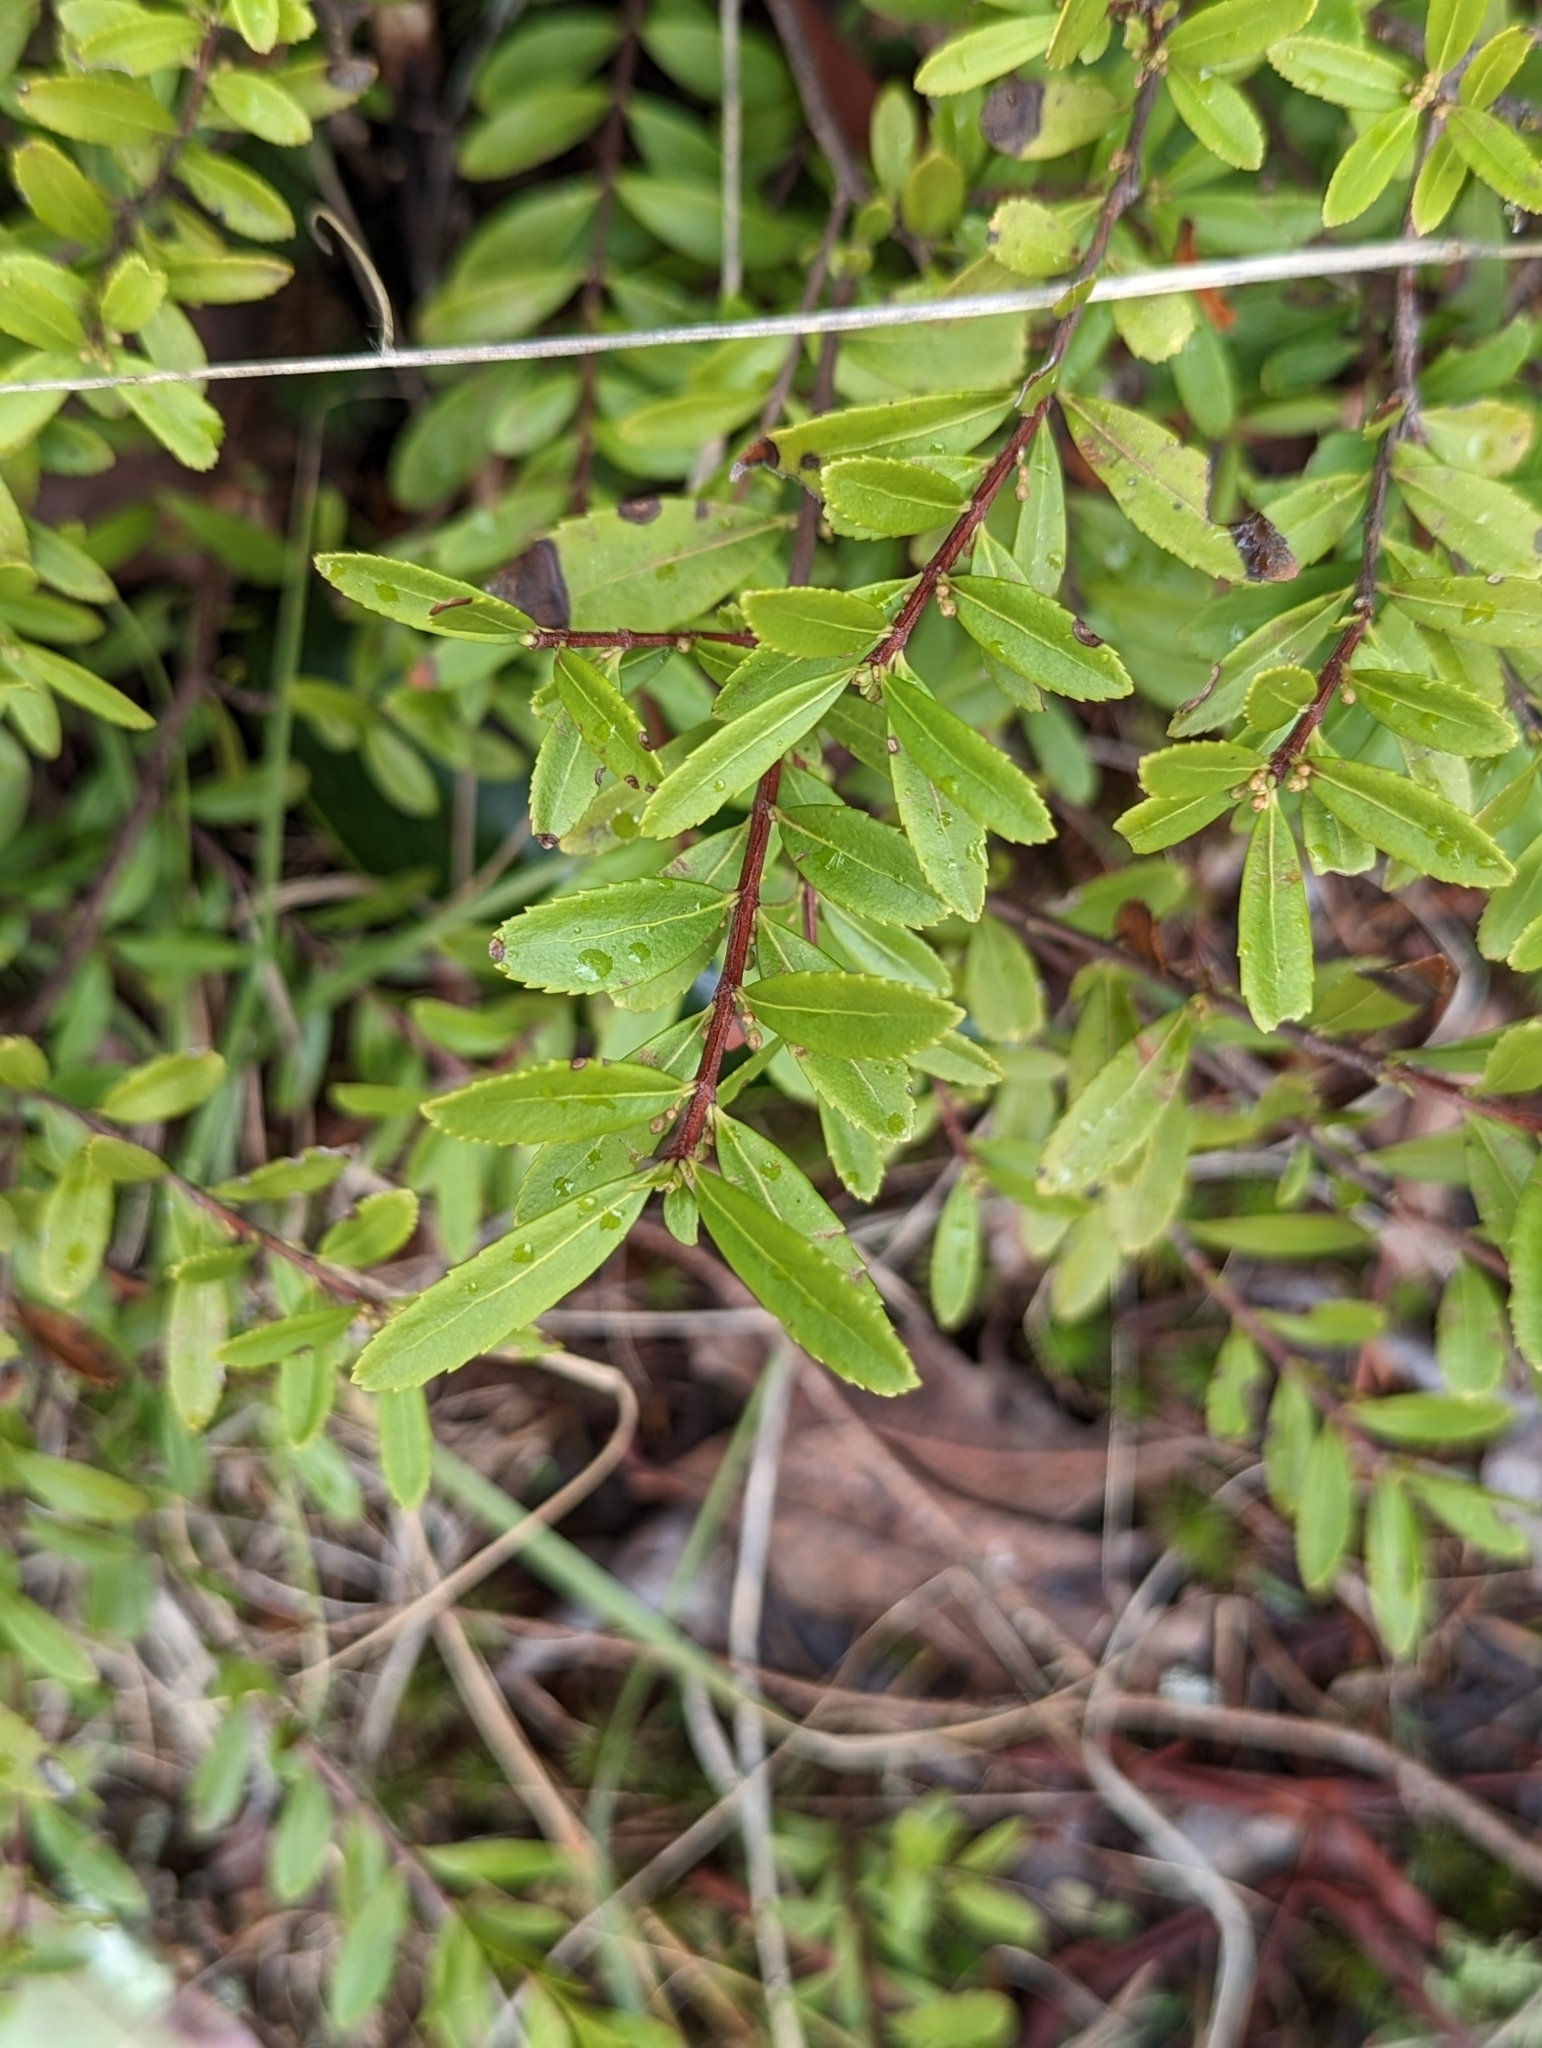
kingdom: Plantae
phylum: Tracheophyta
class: Magnoliopsida
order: Celastrales
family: Celastraceae
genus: Paxistima
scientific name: Paxistima myrsinites
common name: Mountain-lover
